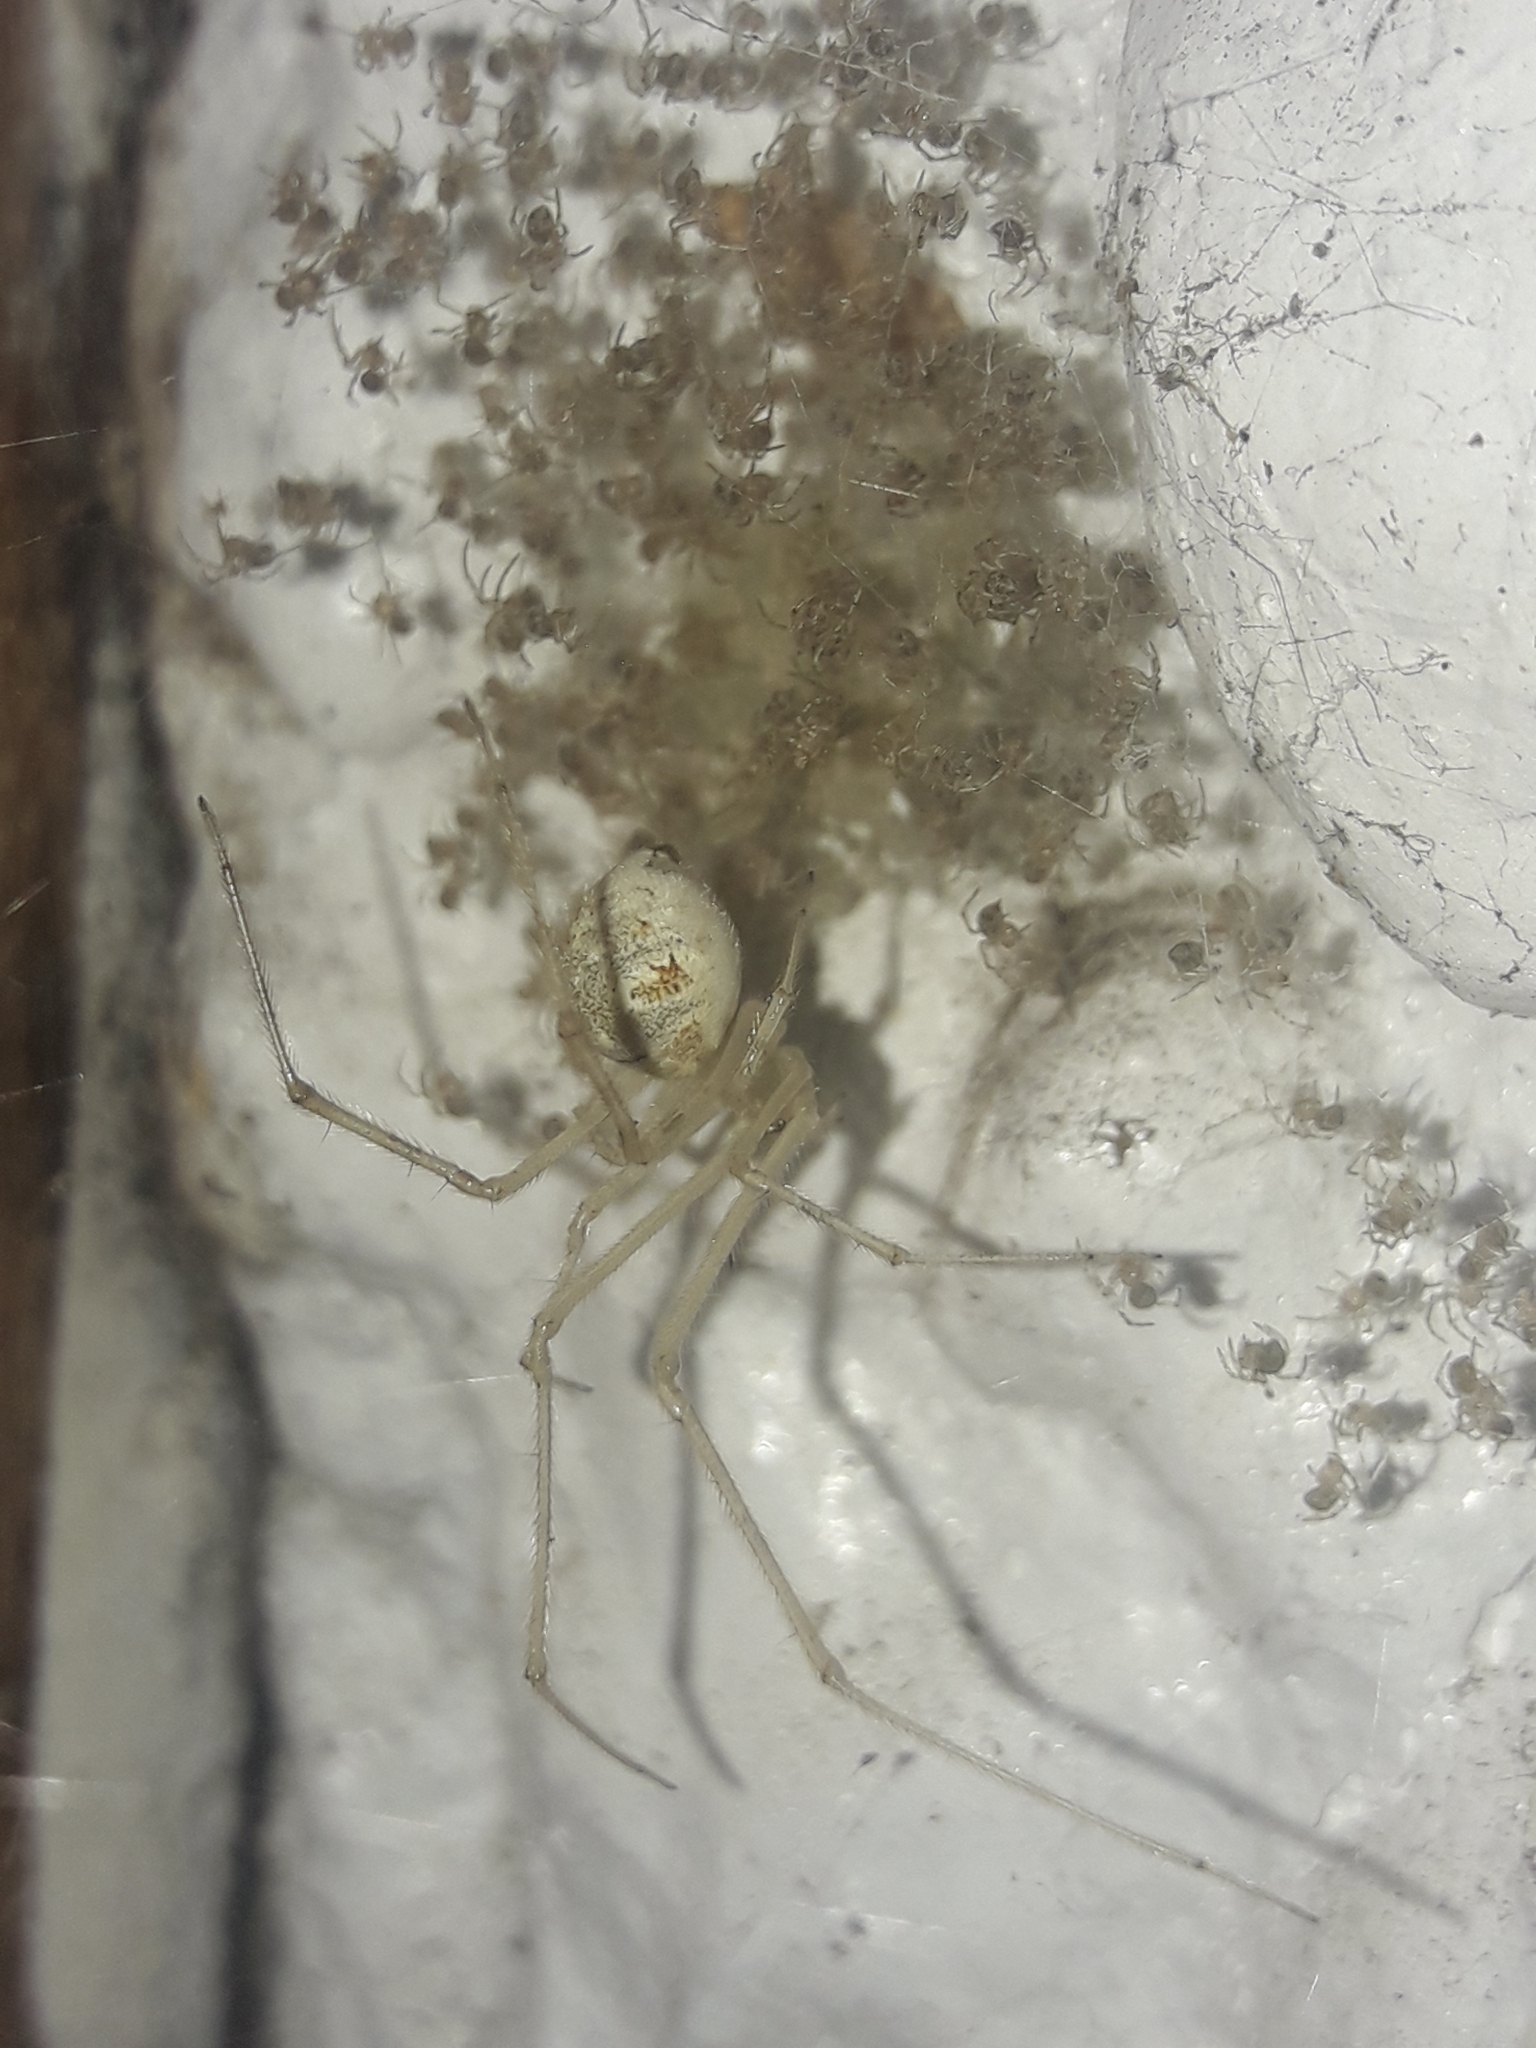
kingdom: Animalia
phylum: Arthropoda
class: Arachnida
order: Araneae
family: Theridiidae
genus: Cryptachaea
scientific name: Cryptachaea gigantipes
